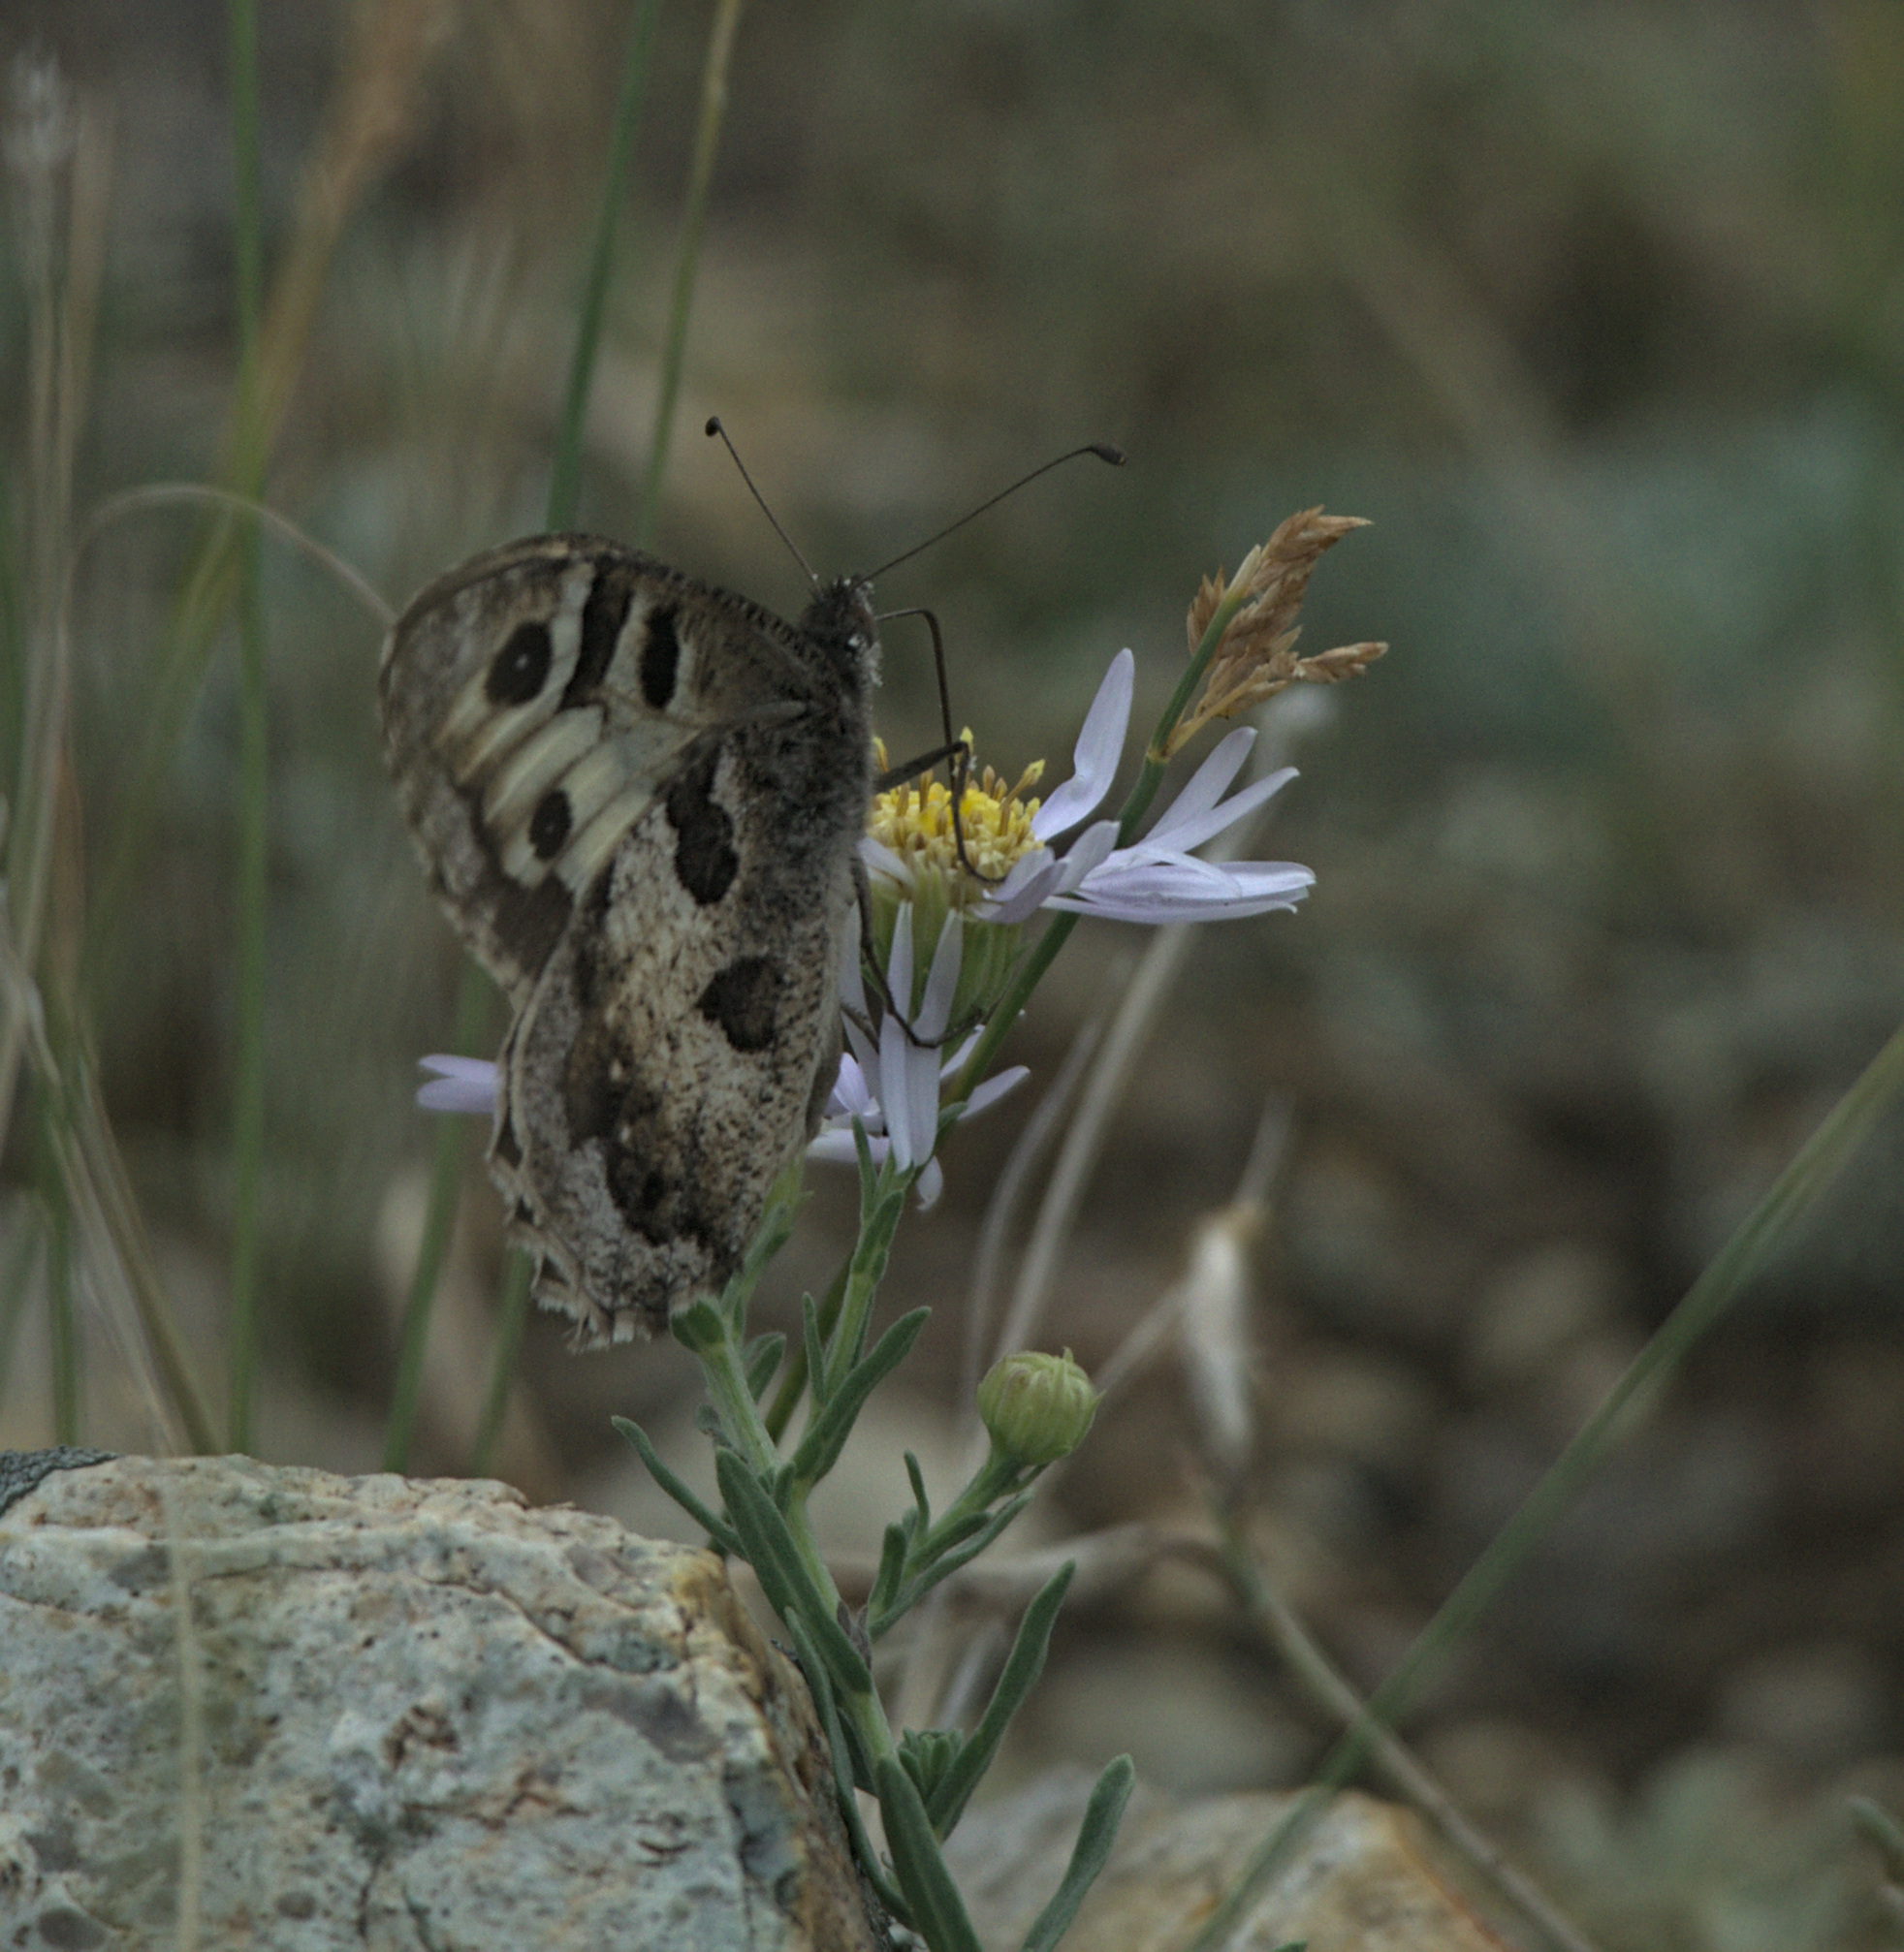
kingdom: Animalia
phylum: Arthropoda
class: Insecta
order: Lepidoptera
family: Nymphalidae
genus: Satyrus
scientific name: Satyrus briseis
